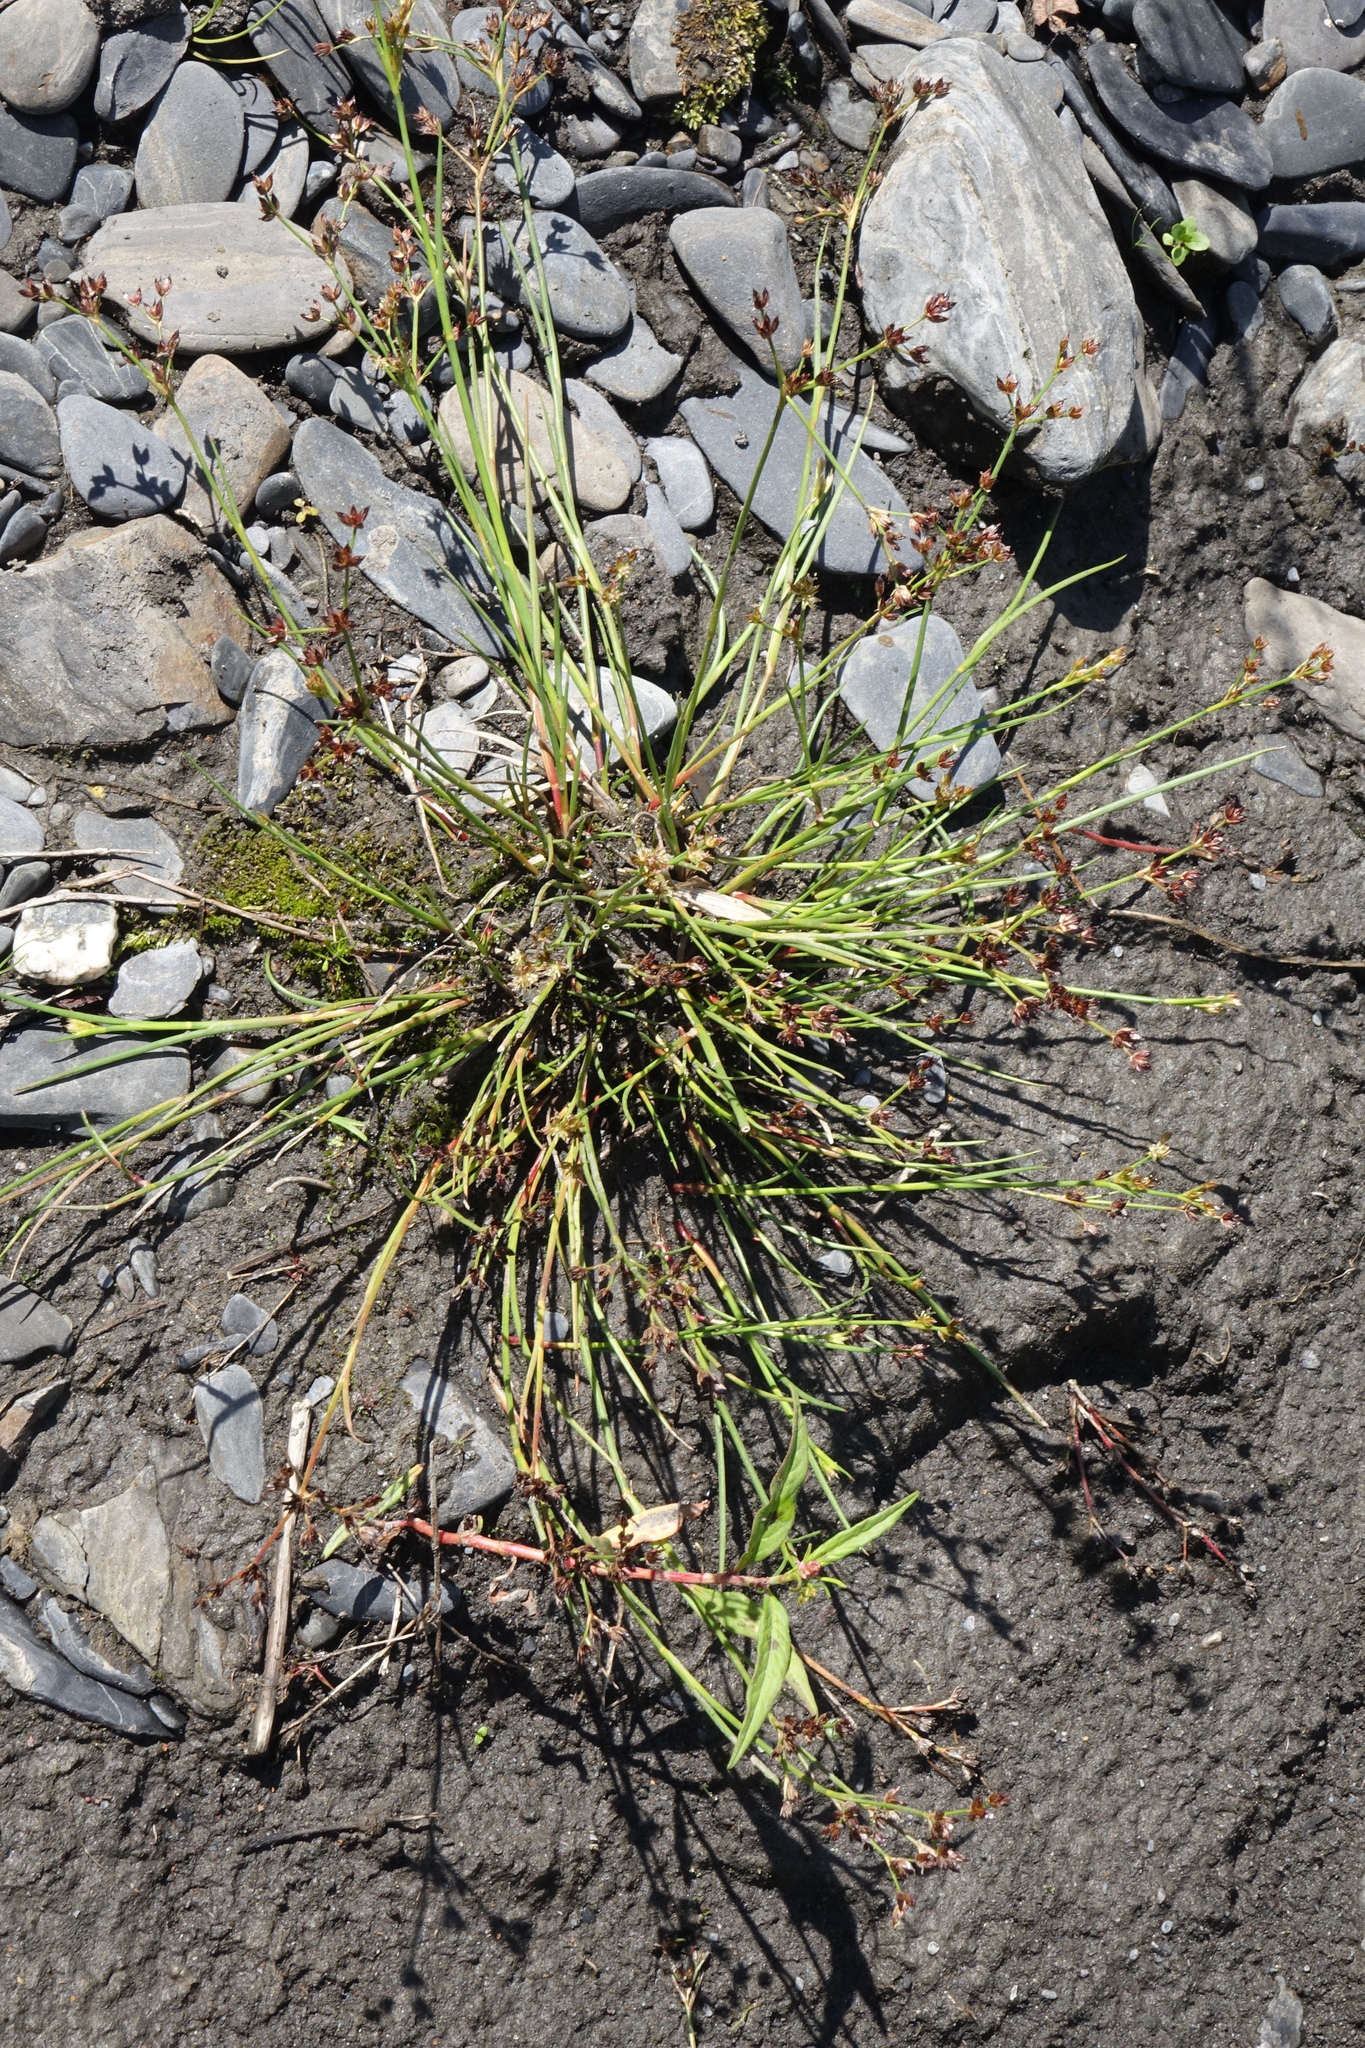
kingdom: Plantae
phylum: Tracheophyta
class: Liliopsida
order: Poales
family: Juncaceae
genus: Juncus
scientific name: Juncus articulatus
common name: Jointed rush
